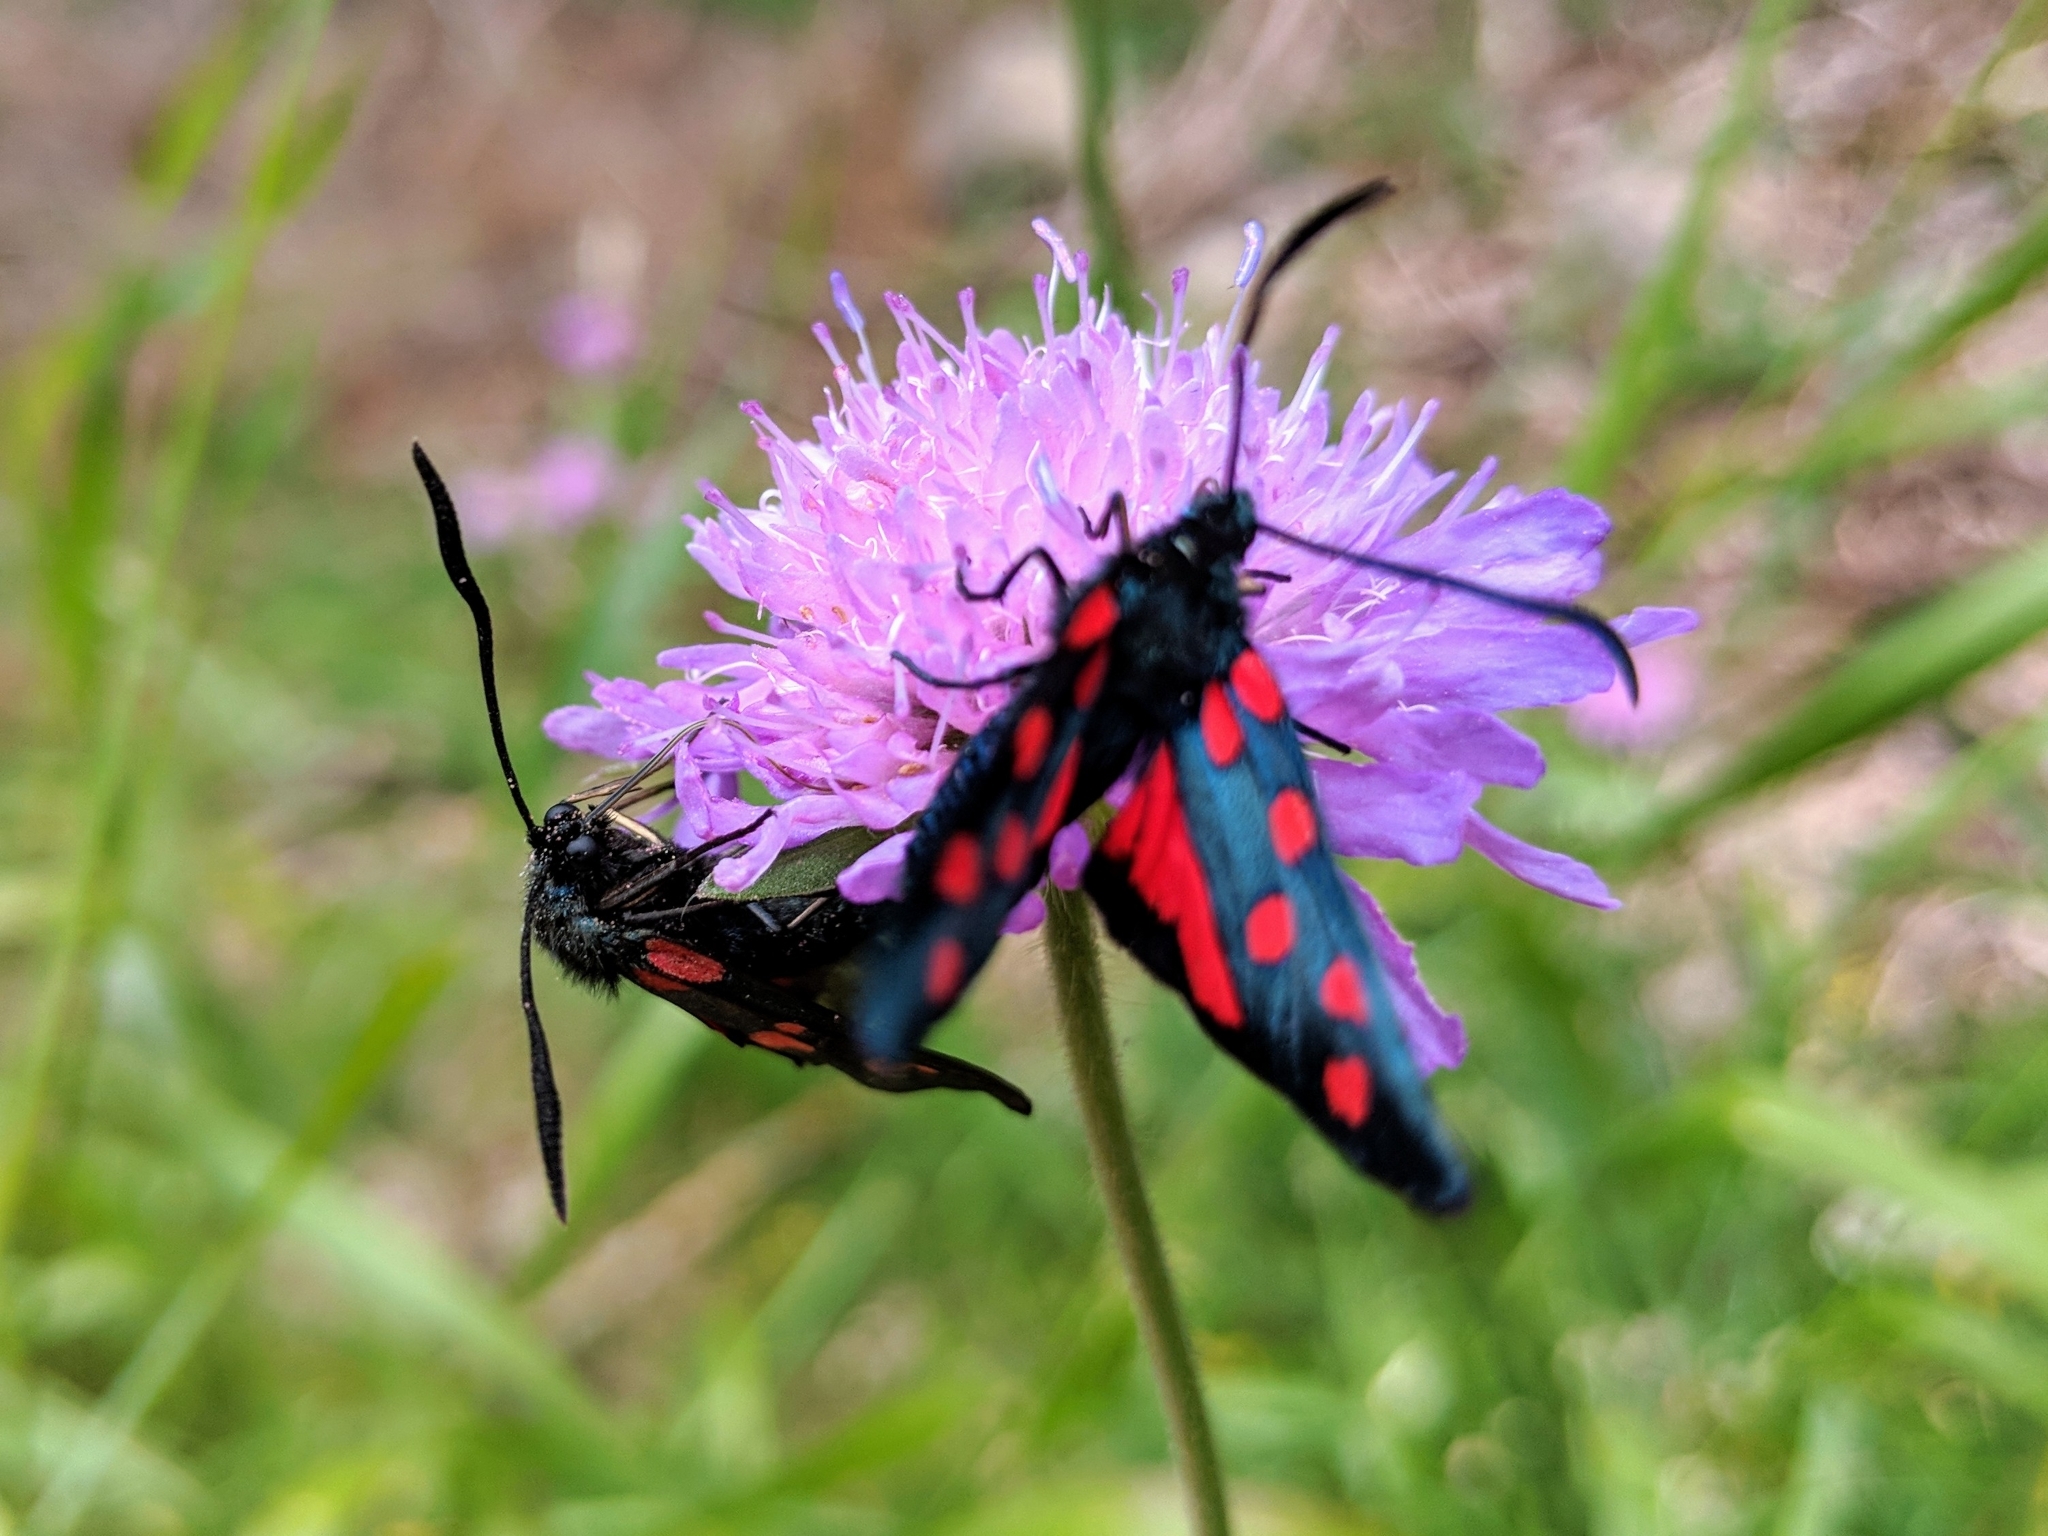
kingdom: Animalia
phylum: Arthropoda
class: Insecta
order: Lepidoptera
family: Zygaenidae
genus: Zygaena
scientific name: Zygaena transalpina
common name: Southern six spot burnet
